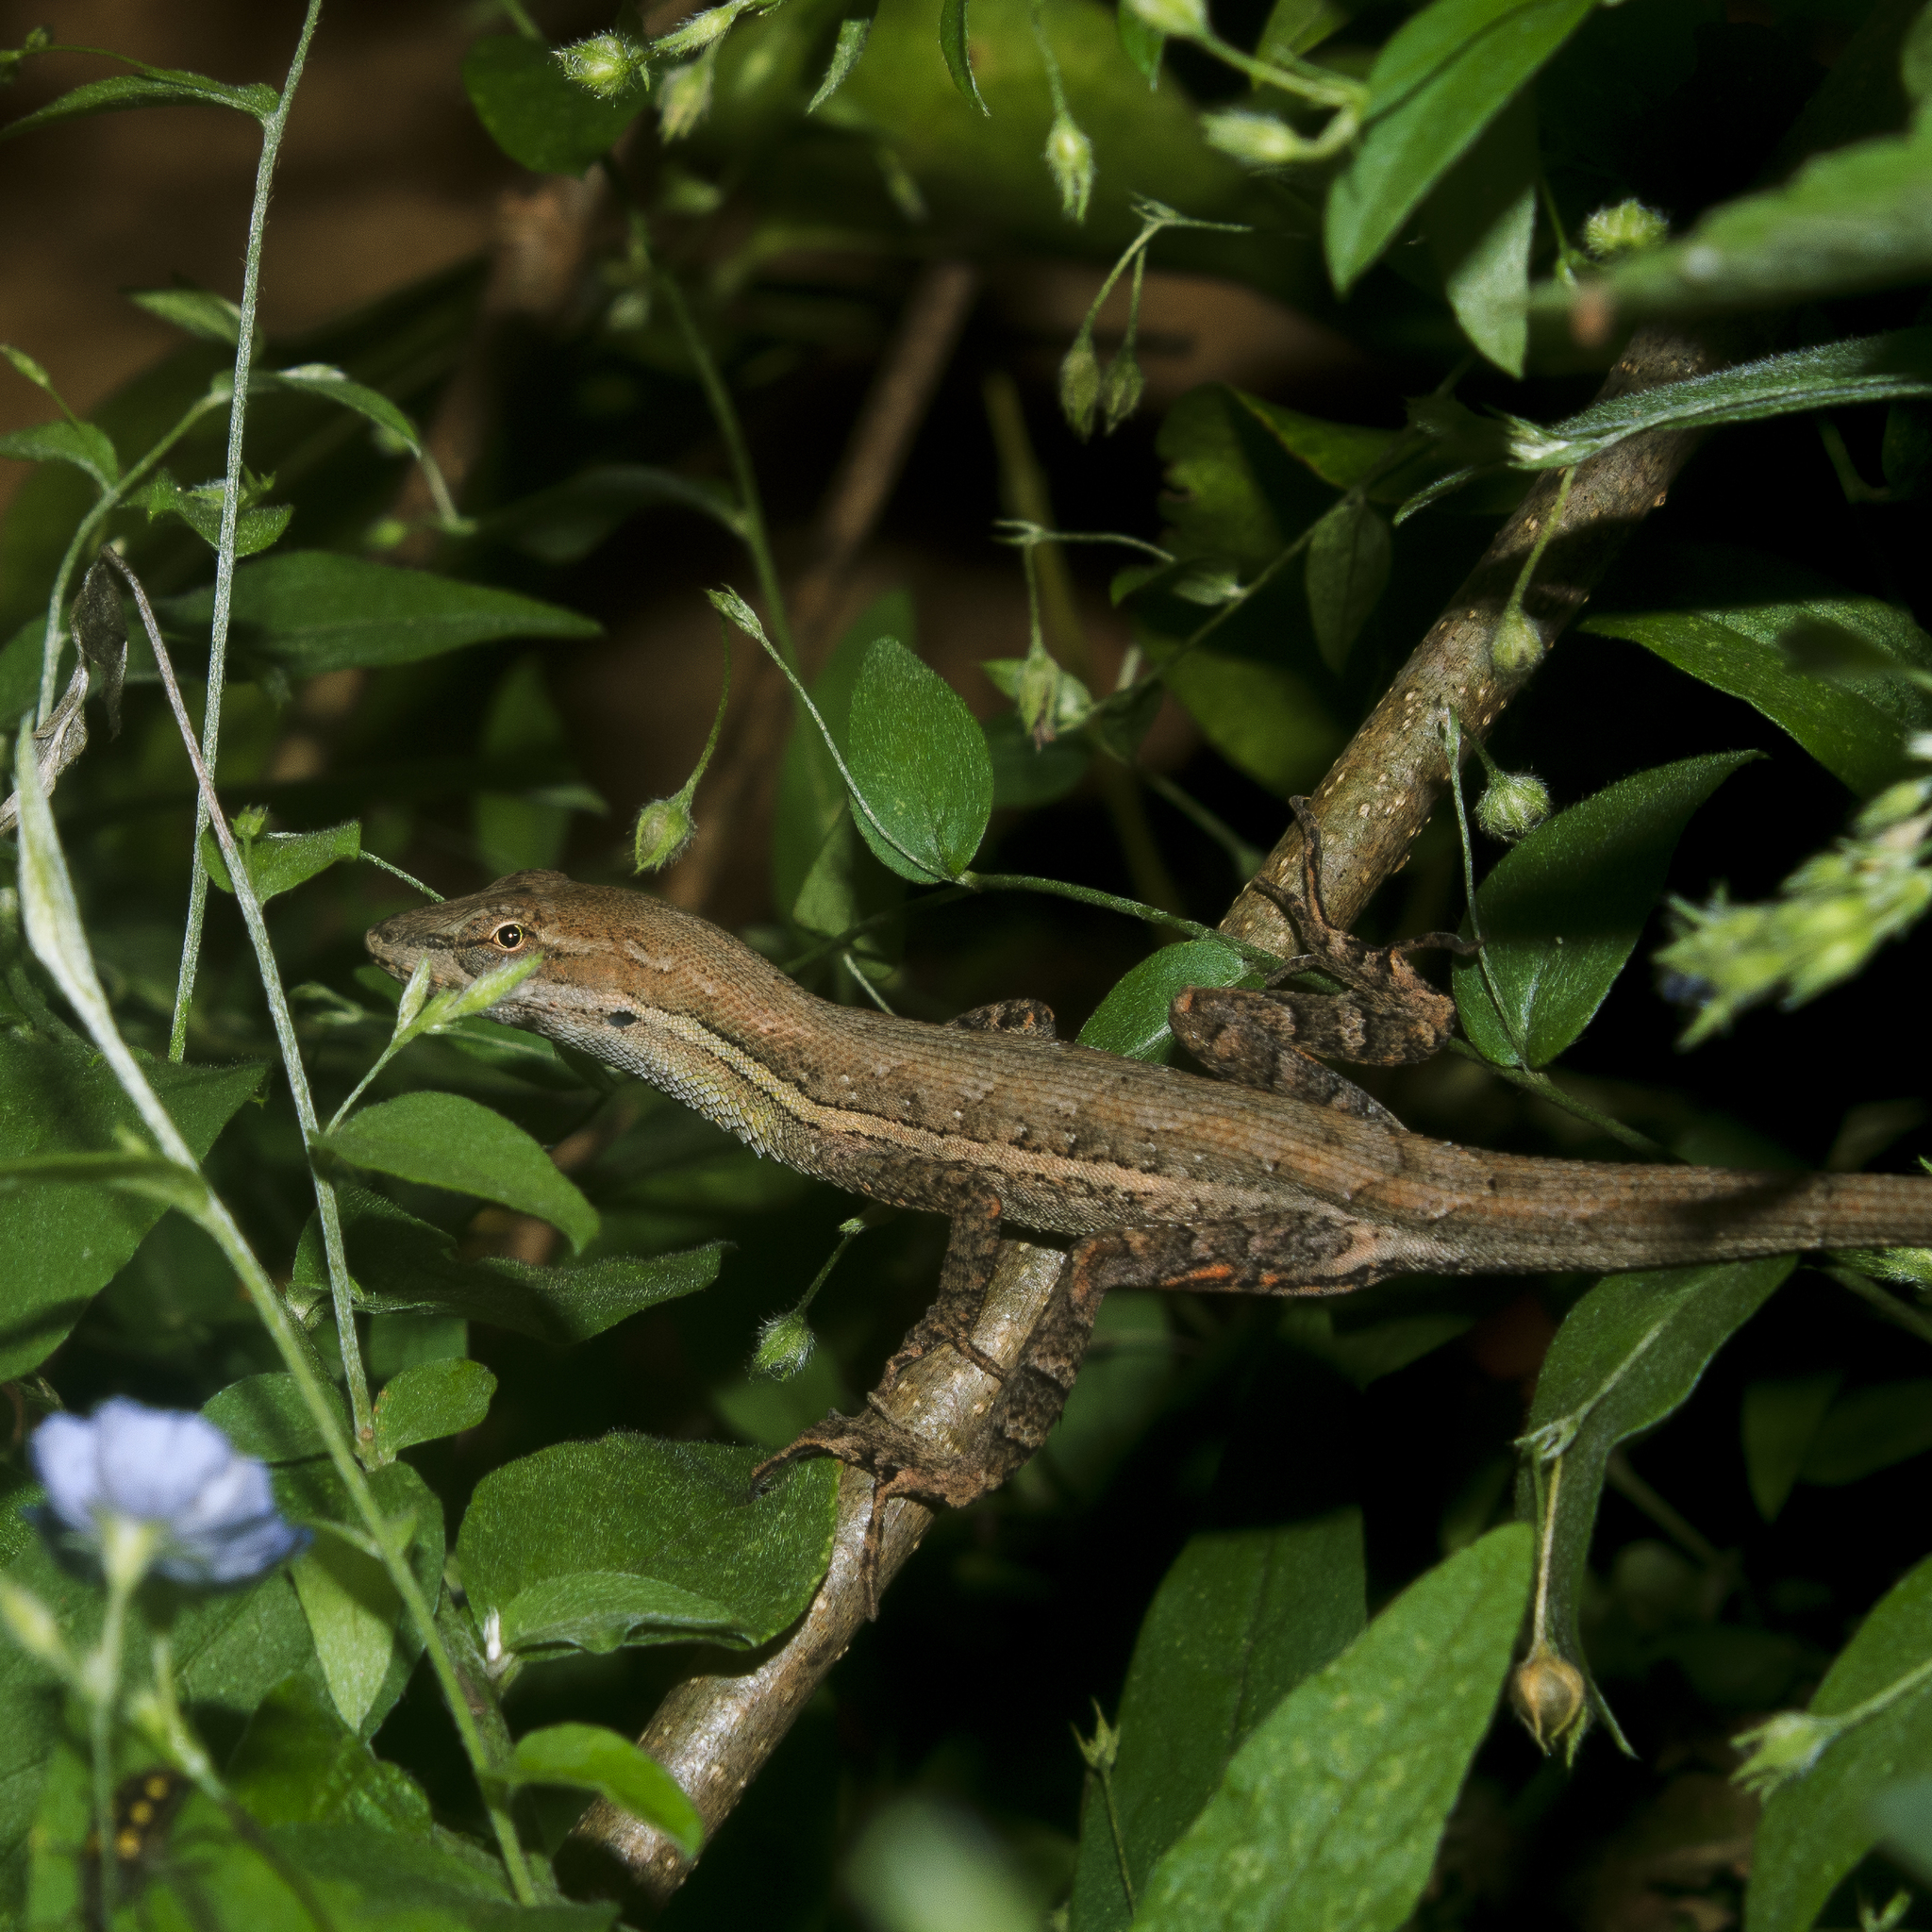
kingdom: Animalia
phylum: Chordata
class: Squamata
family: Dactyloidae
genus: Anolis
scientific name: Anolis auratus
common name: Grass anole
